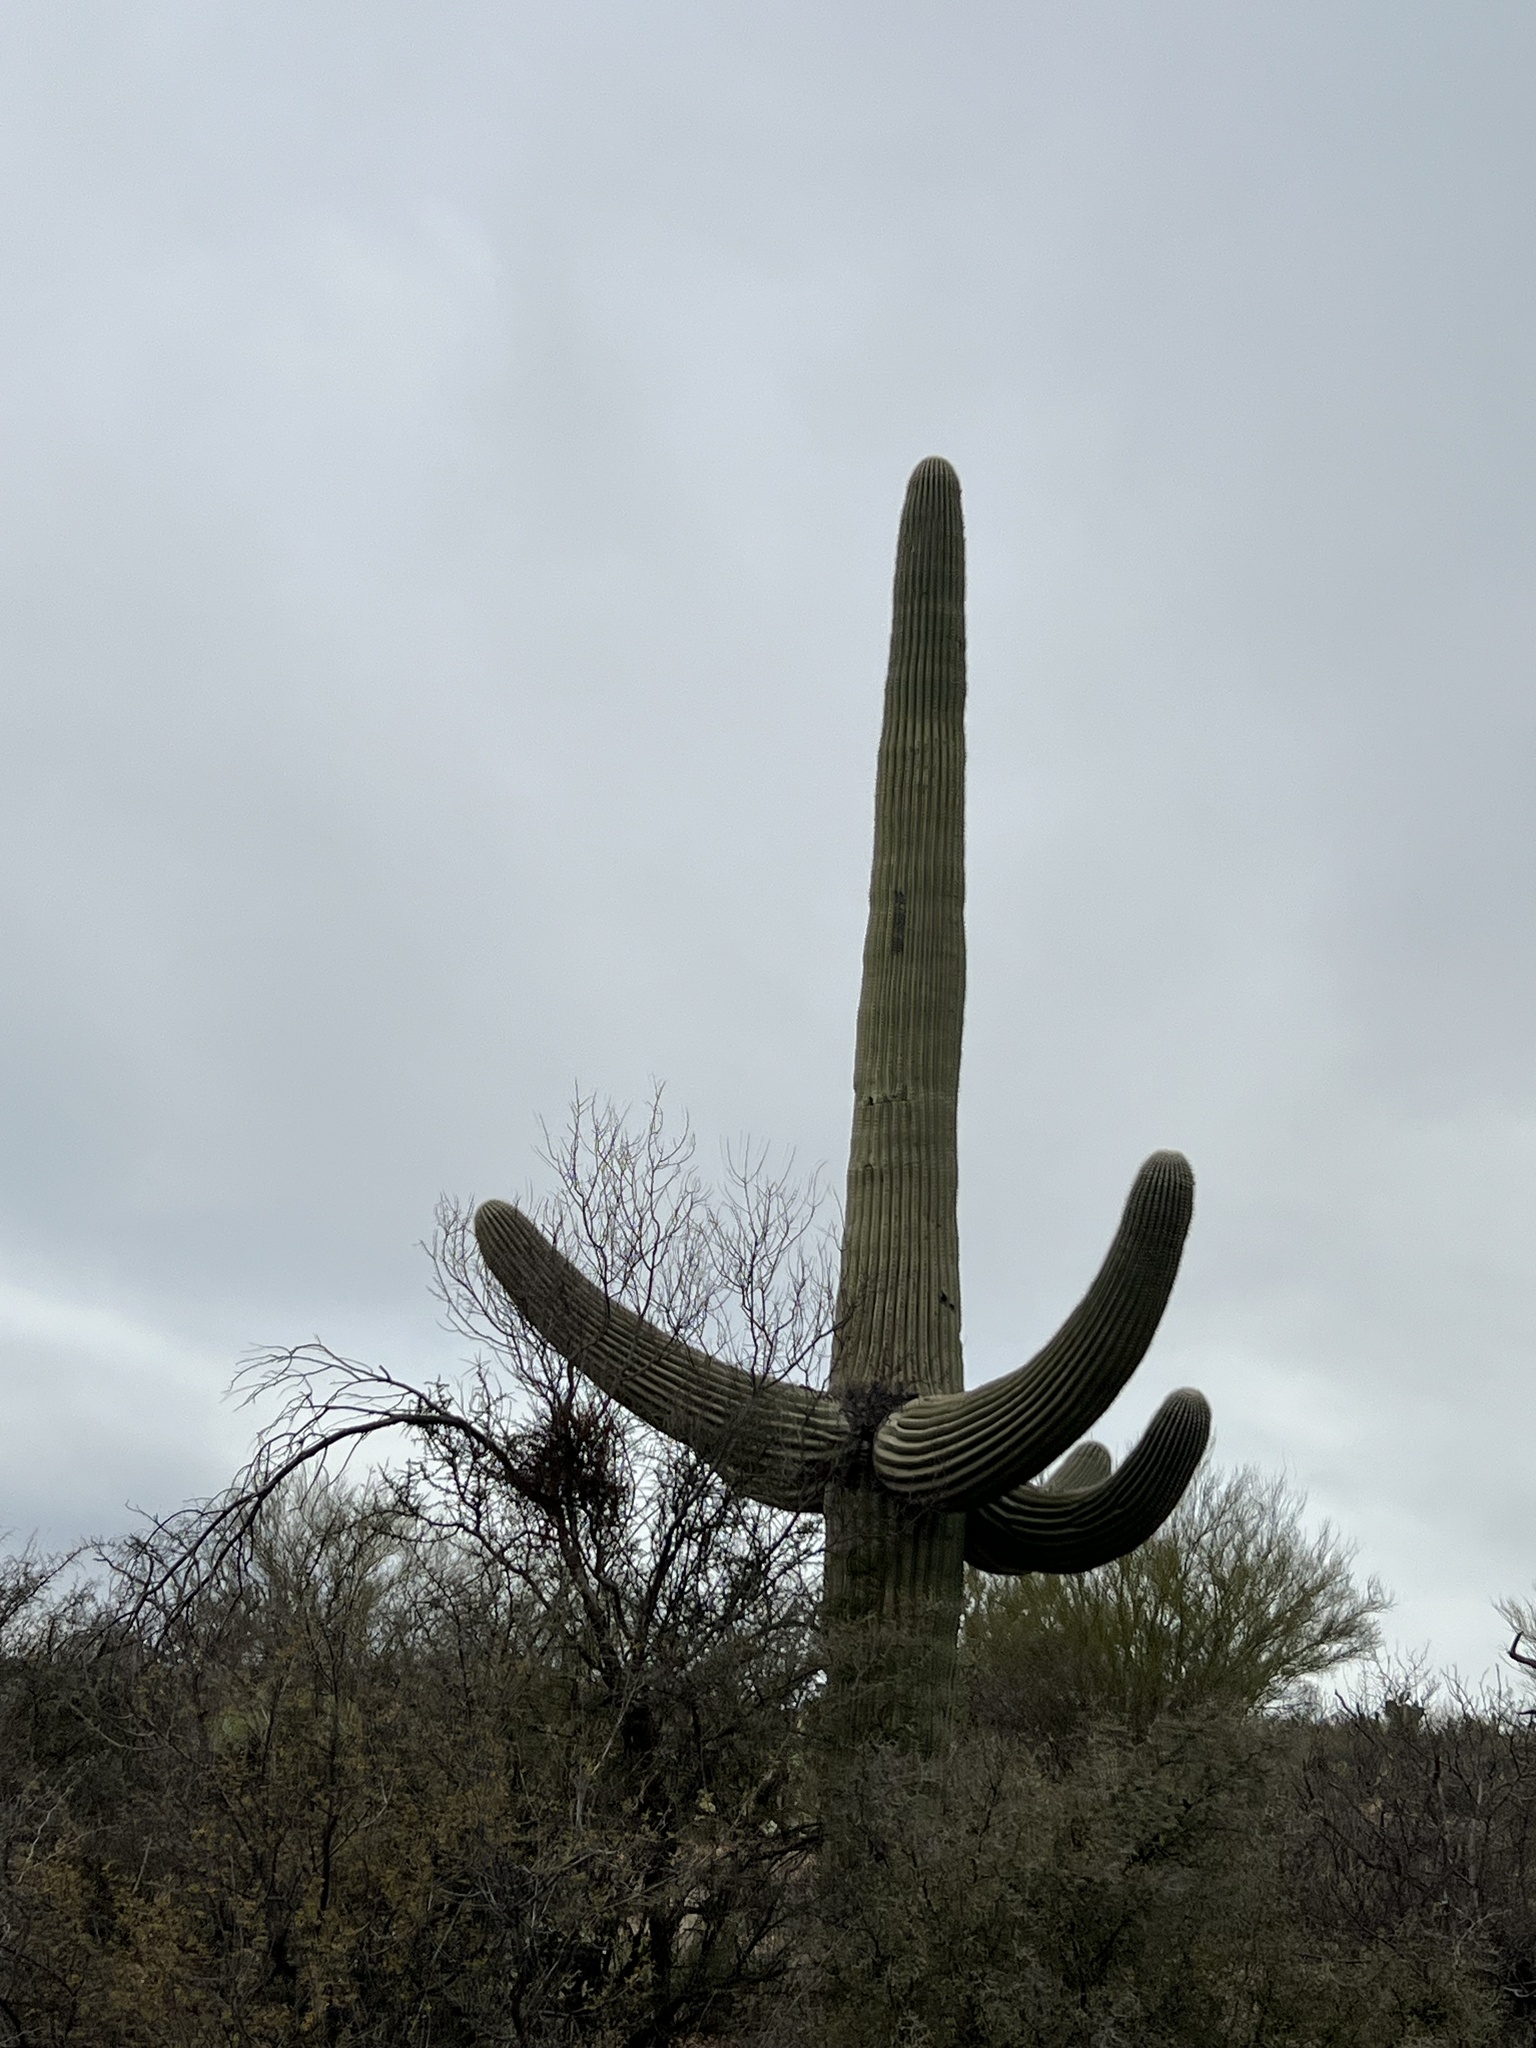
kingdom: Plantae
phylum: Tracheophyta
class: Magnoliopsida
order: Caryophyllales
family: Cactaceae
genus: Carnegiea
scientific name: Carnegiea gigantea
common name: Saguaro
